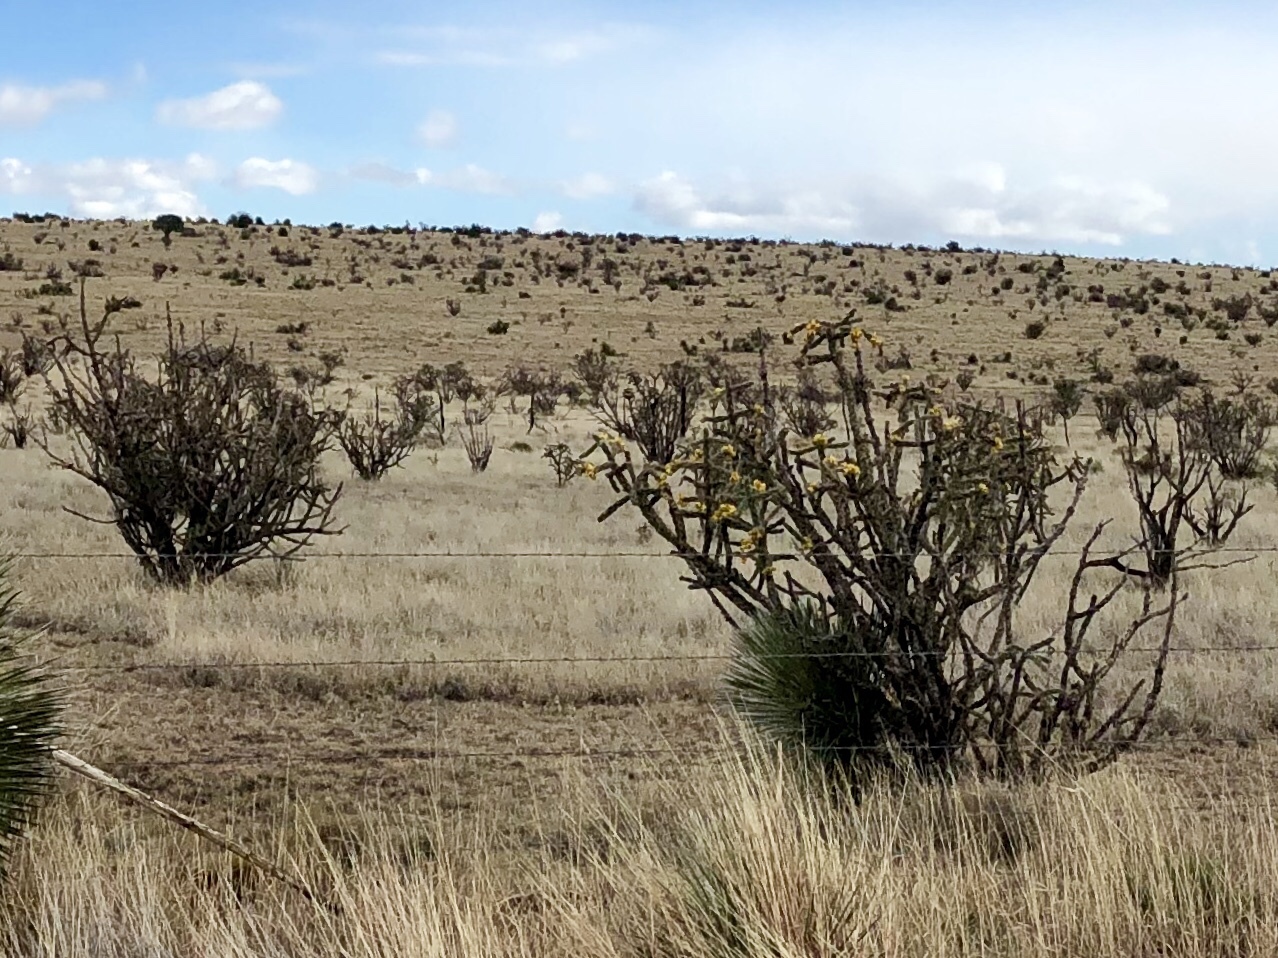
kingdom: Plantae
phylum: Tracheophyta
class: Magnoliopsida
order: Caryophyllales
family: Cactaceae
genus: Cylindropuntia
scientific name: Cylindropuntia imbricata
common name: Candelabrum cactus
